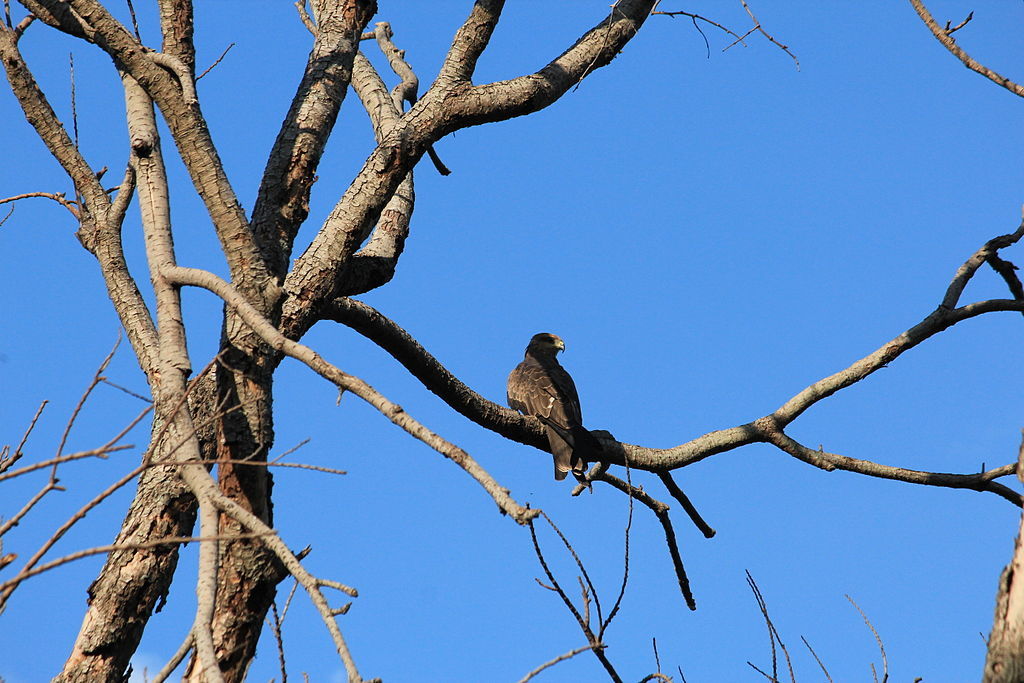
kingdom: Animalia
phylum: Chordata
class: Aves
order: Accipitriformes
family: Accipitridae
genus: Milvus
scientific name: Milvus migrans
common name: Black kite
